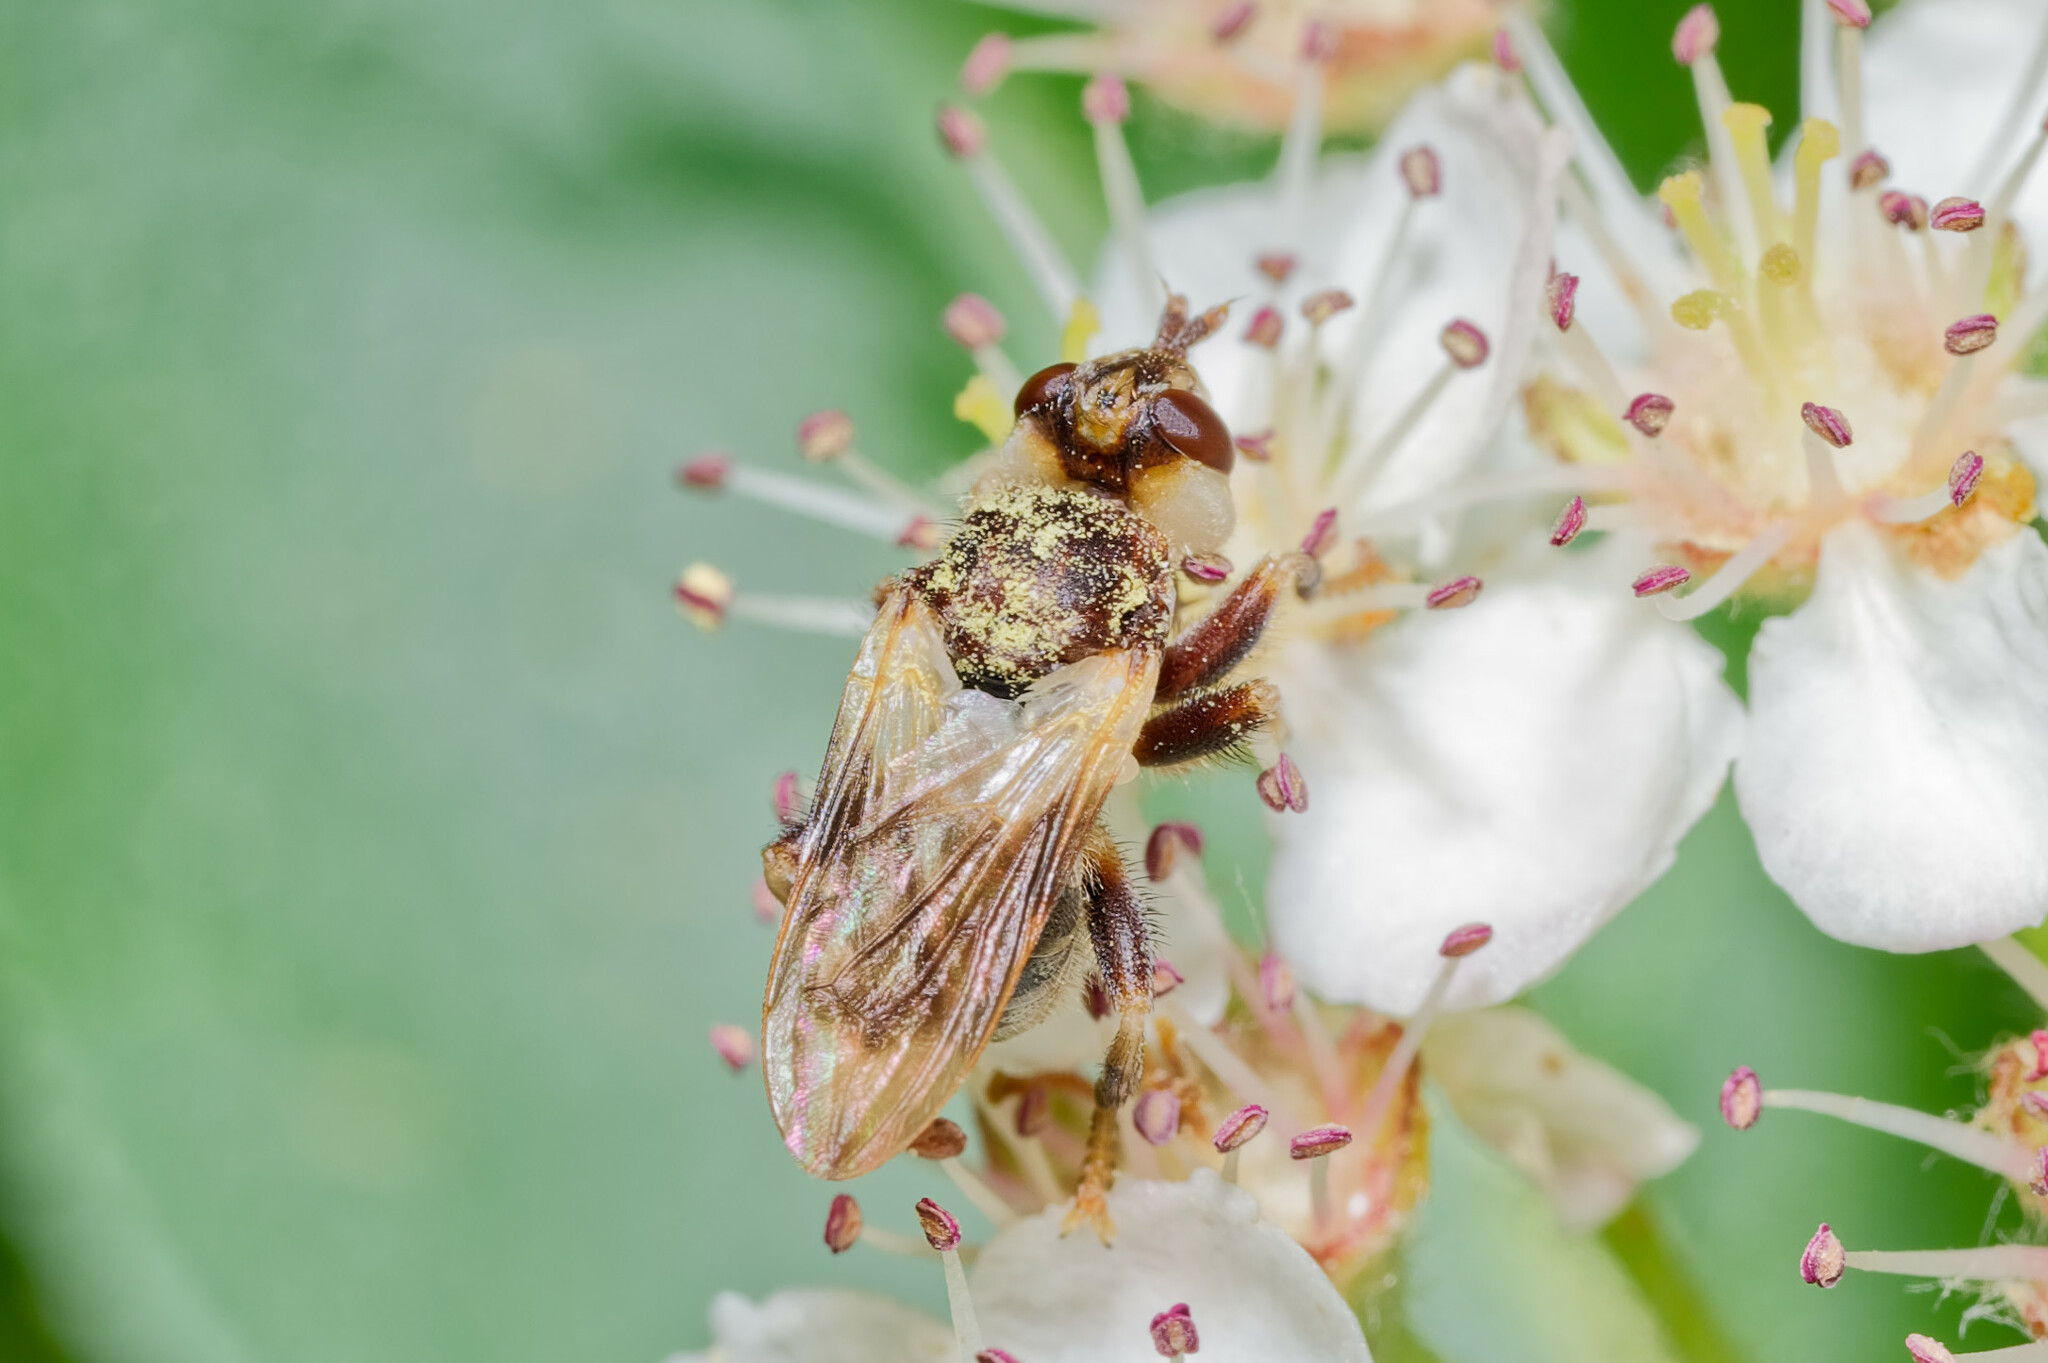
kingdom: Animalia
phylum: Arthropoda
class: Insecta
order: Diptera
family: Conopidae
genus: Myopa
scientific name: Myopa vesiculosa
